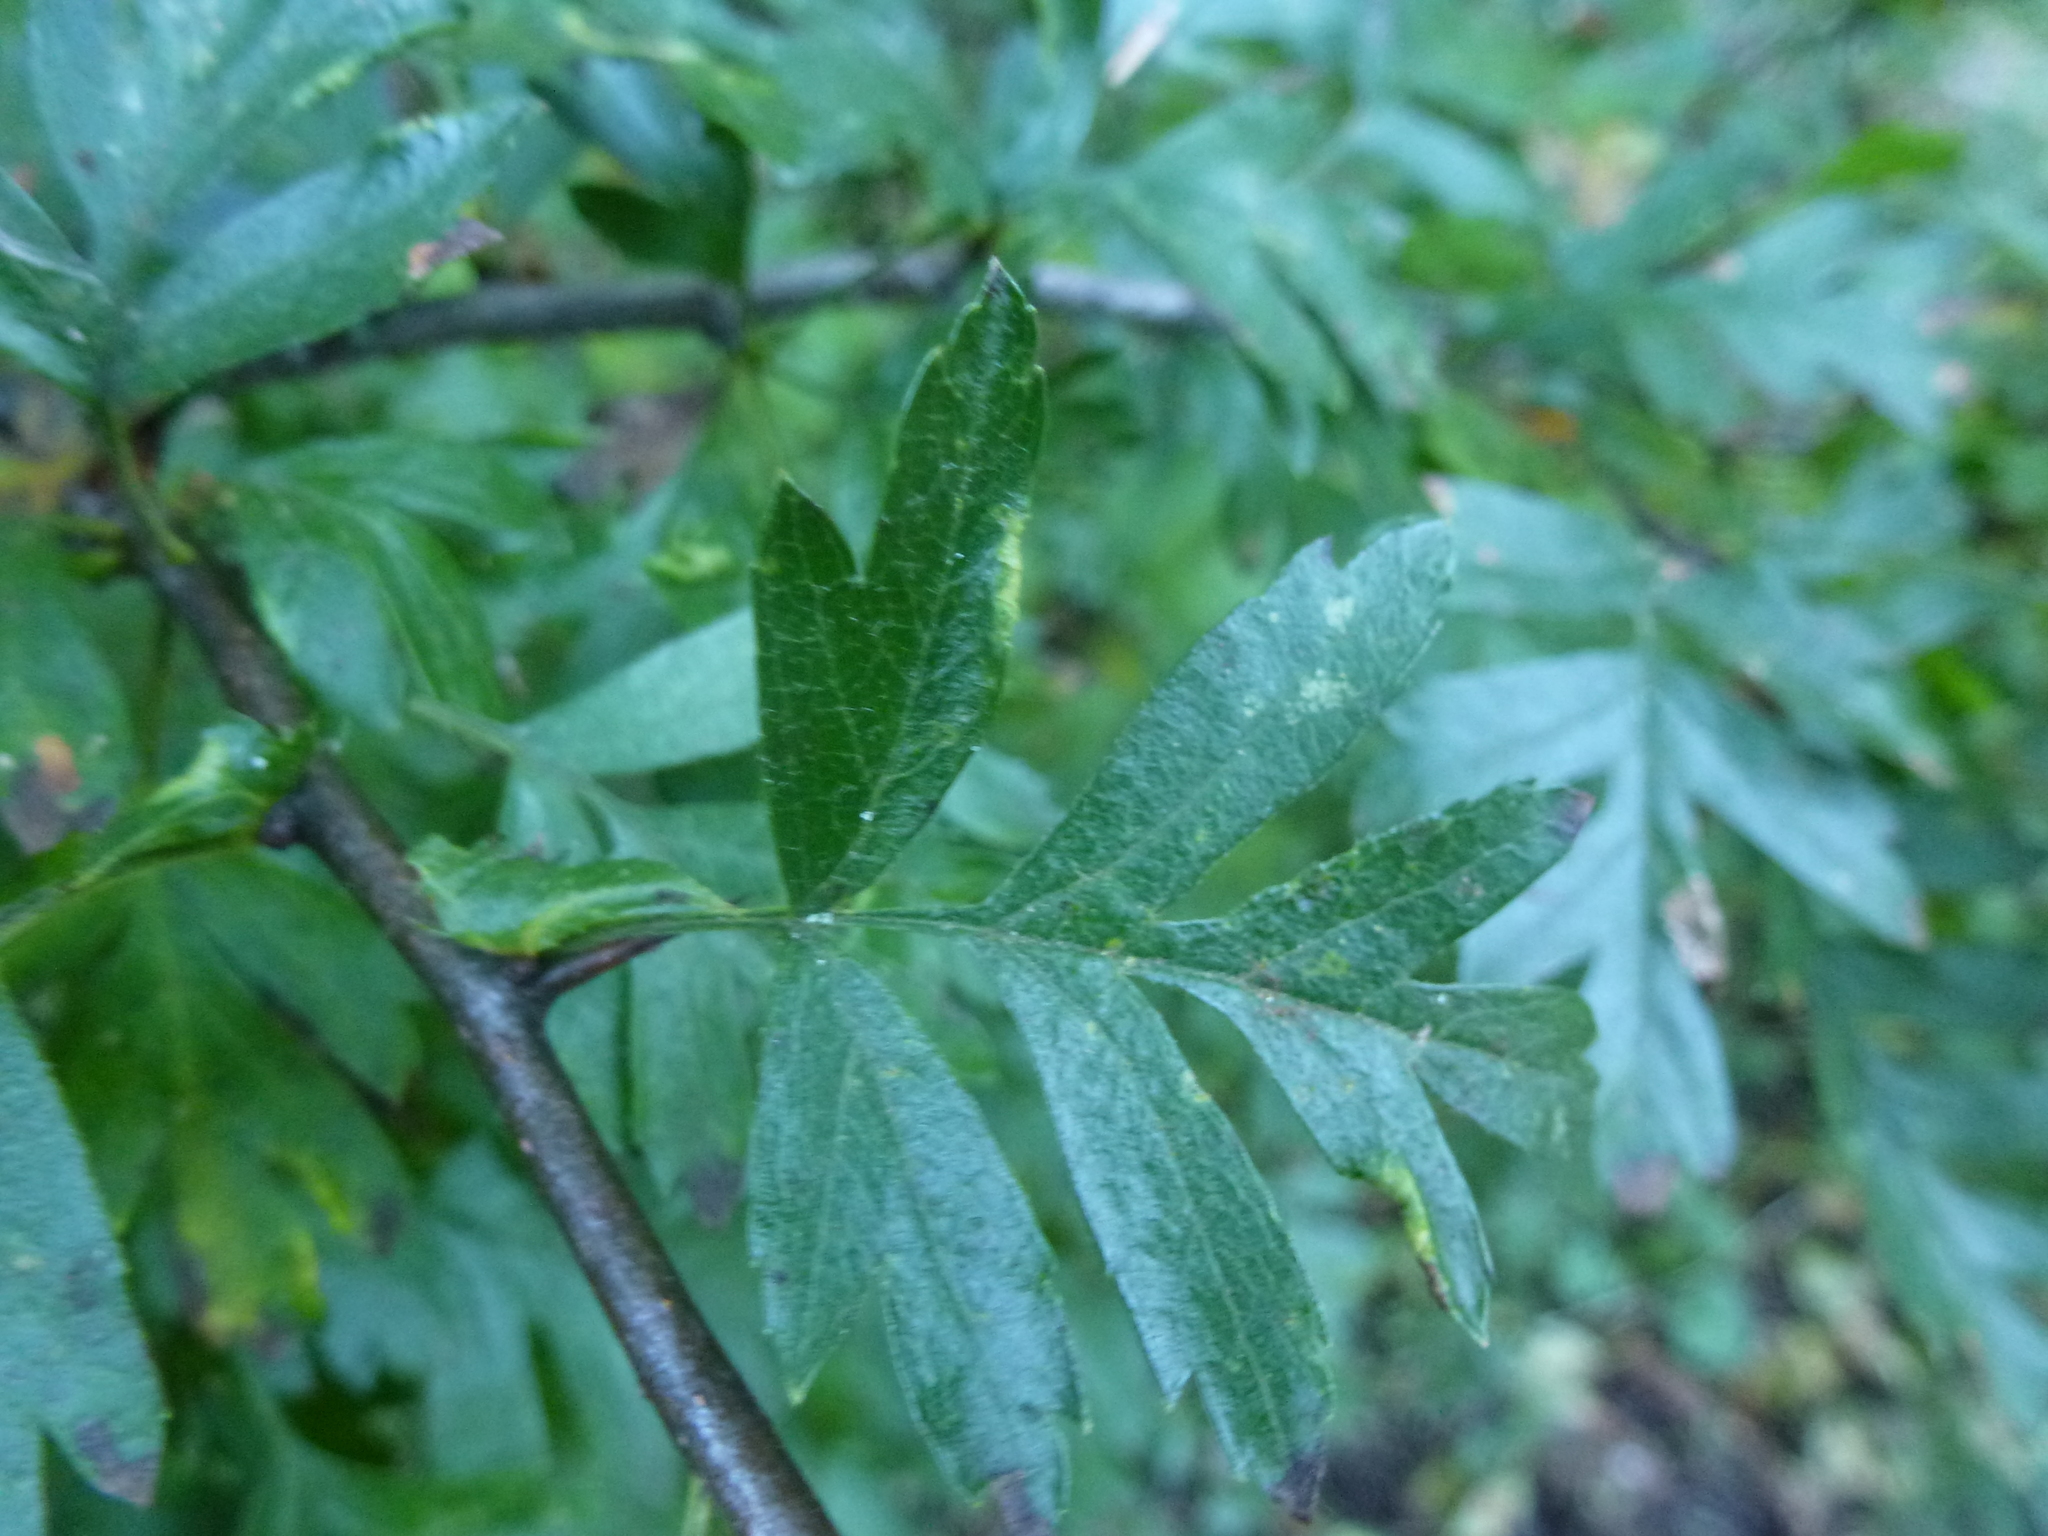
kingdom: Animalia
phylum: Arthropoda
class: Arachnida
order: Trombidiformes
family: Eriophyidae
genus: Phyllocoptes
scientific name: Phyllocoptes goniothorax
